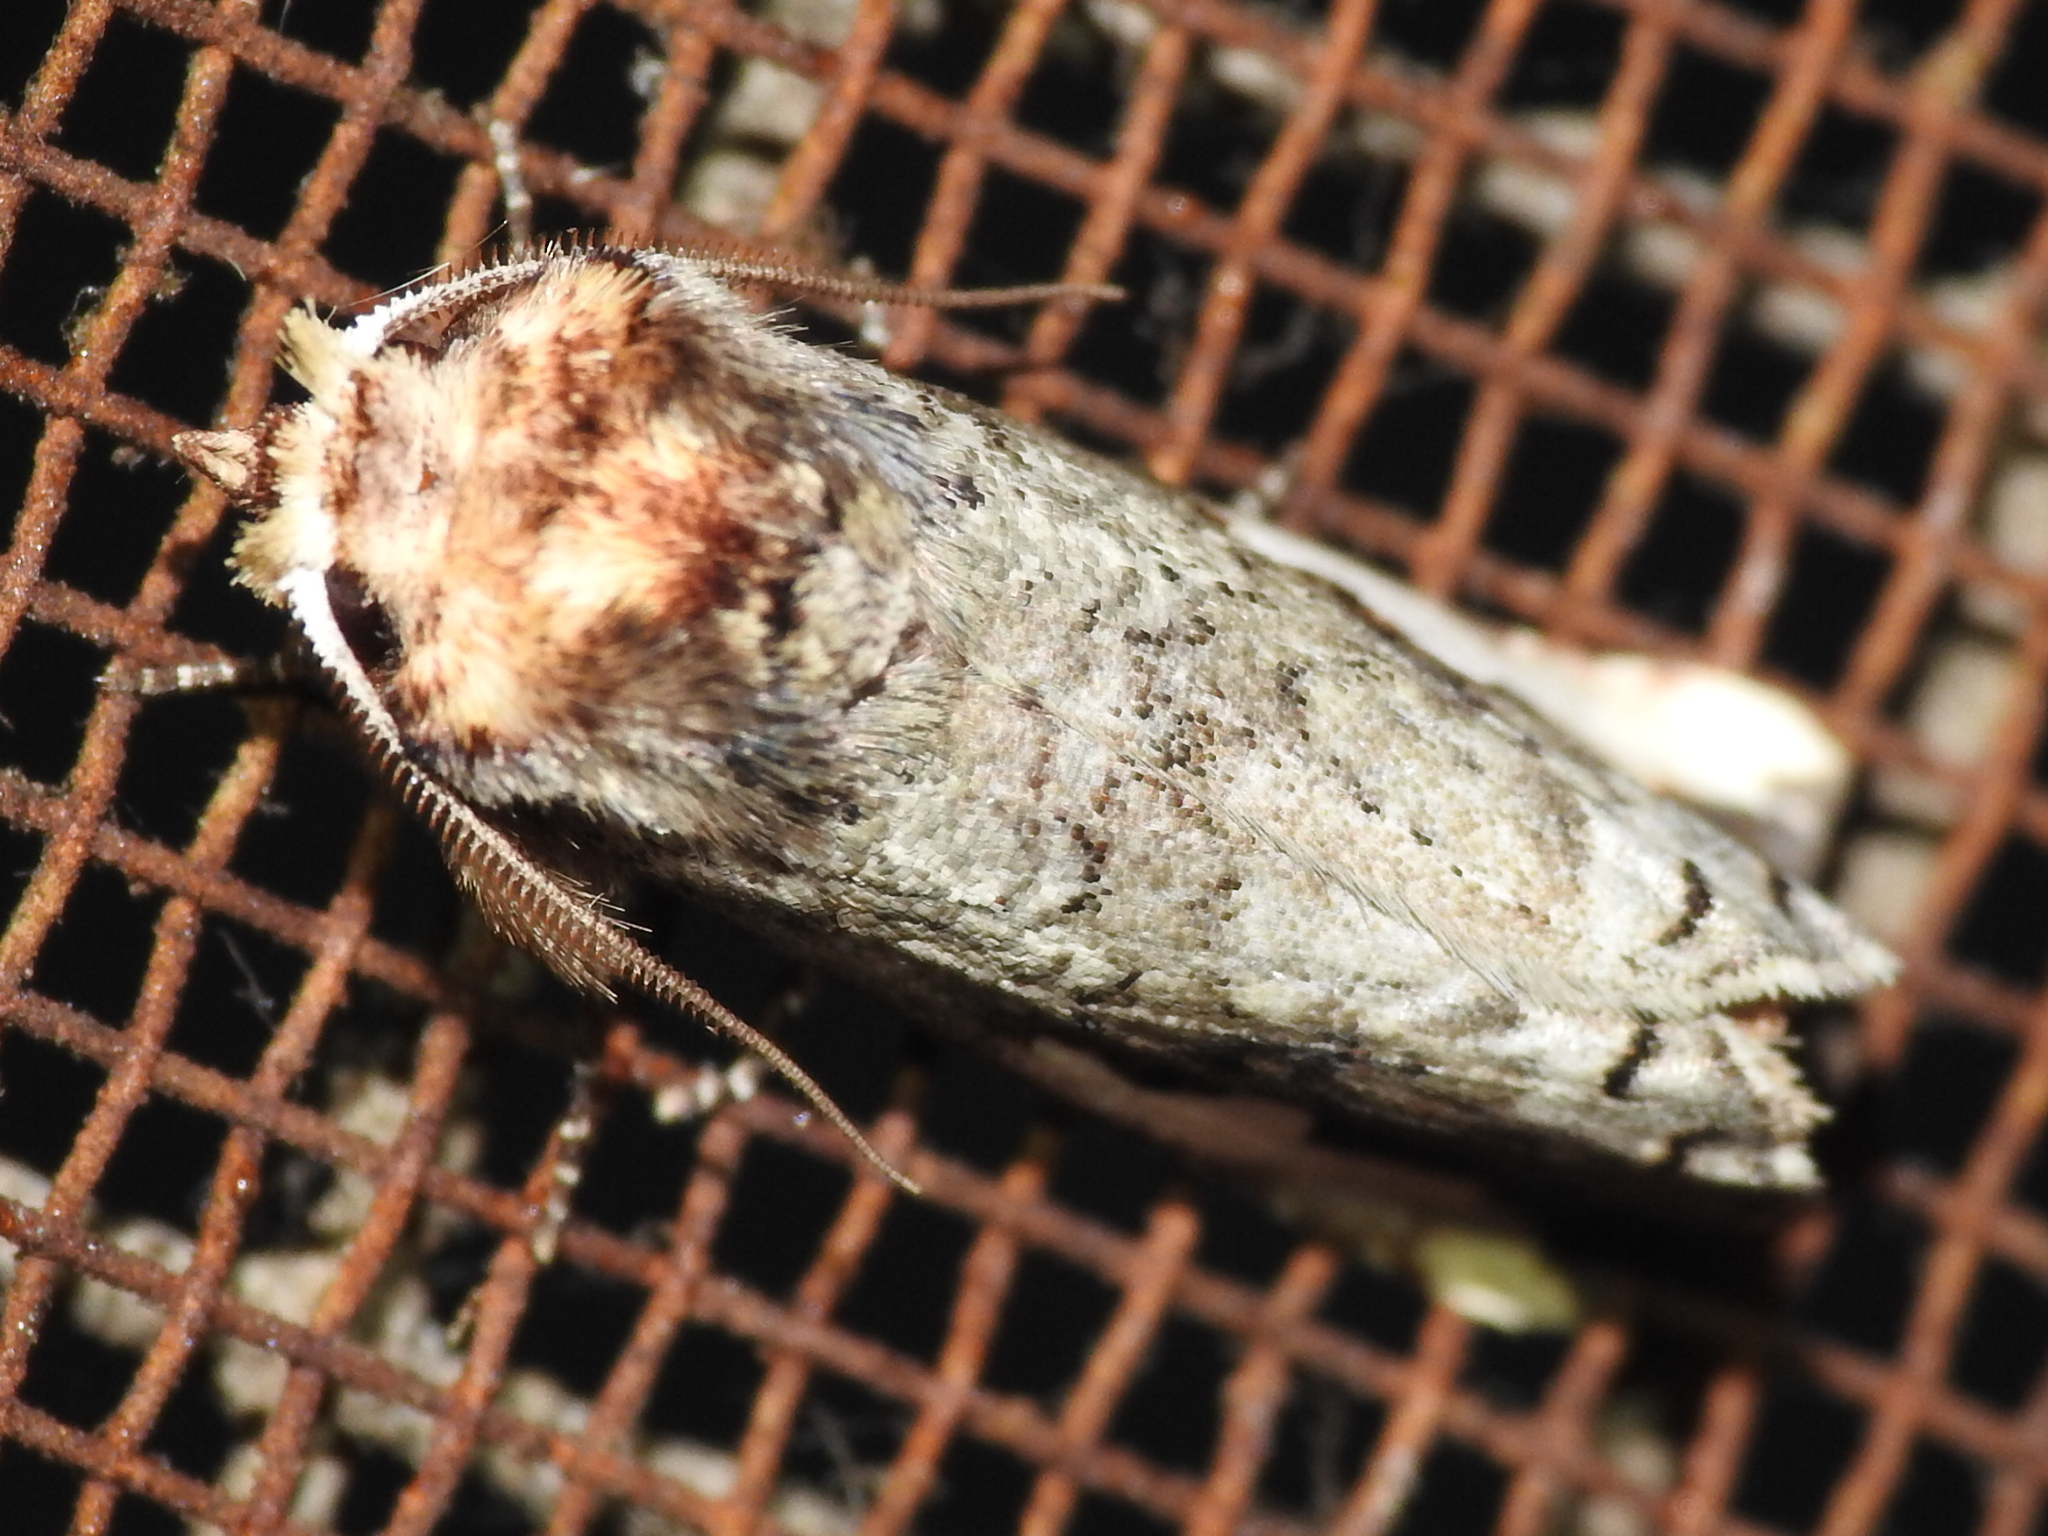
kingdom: Animalia
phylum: Arthropoda
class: Insecta
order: Lepidoptera
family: Notodontidae
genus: Symmerista
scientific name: Symmerista albifrons
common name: White-headed prominent
